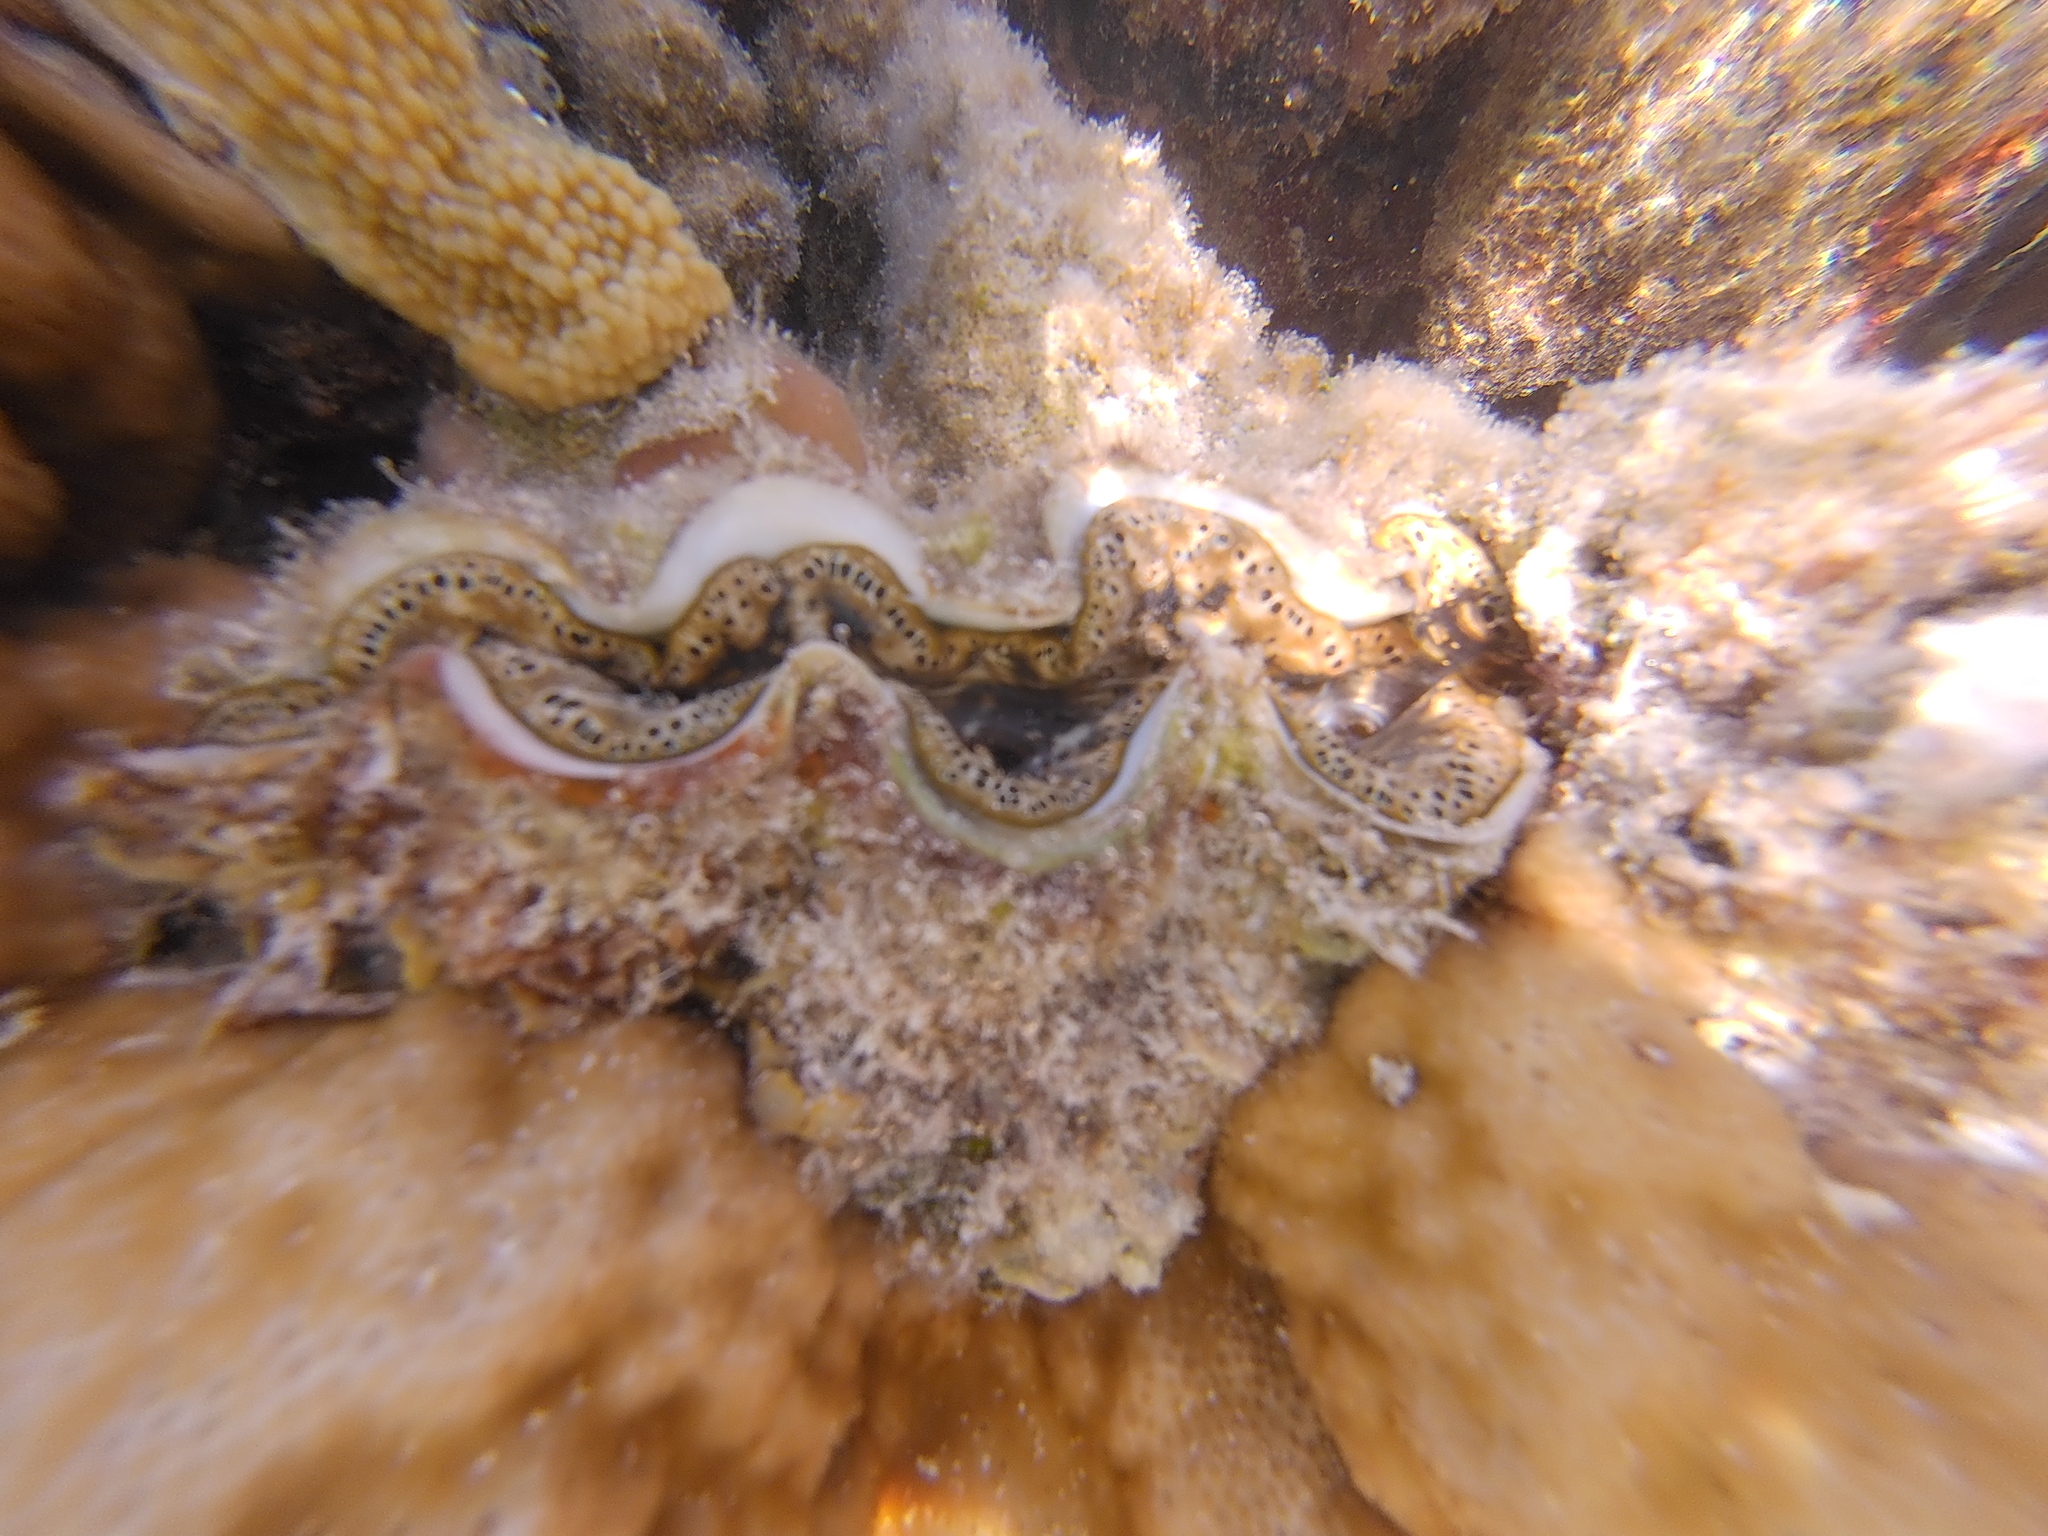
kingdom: Animalia
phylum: Mollusca
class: Bivalvia
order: Cardiida
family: Cardiidae
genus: Tridacna
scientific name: Tridacna maxima
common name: Small giant clam
